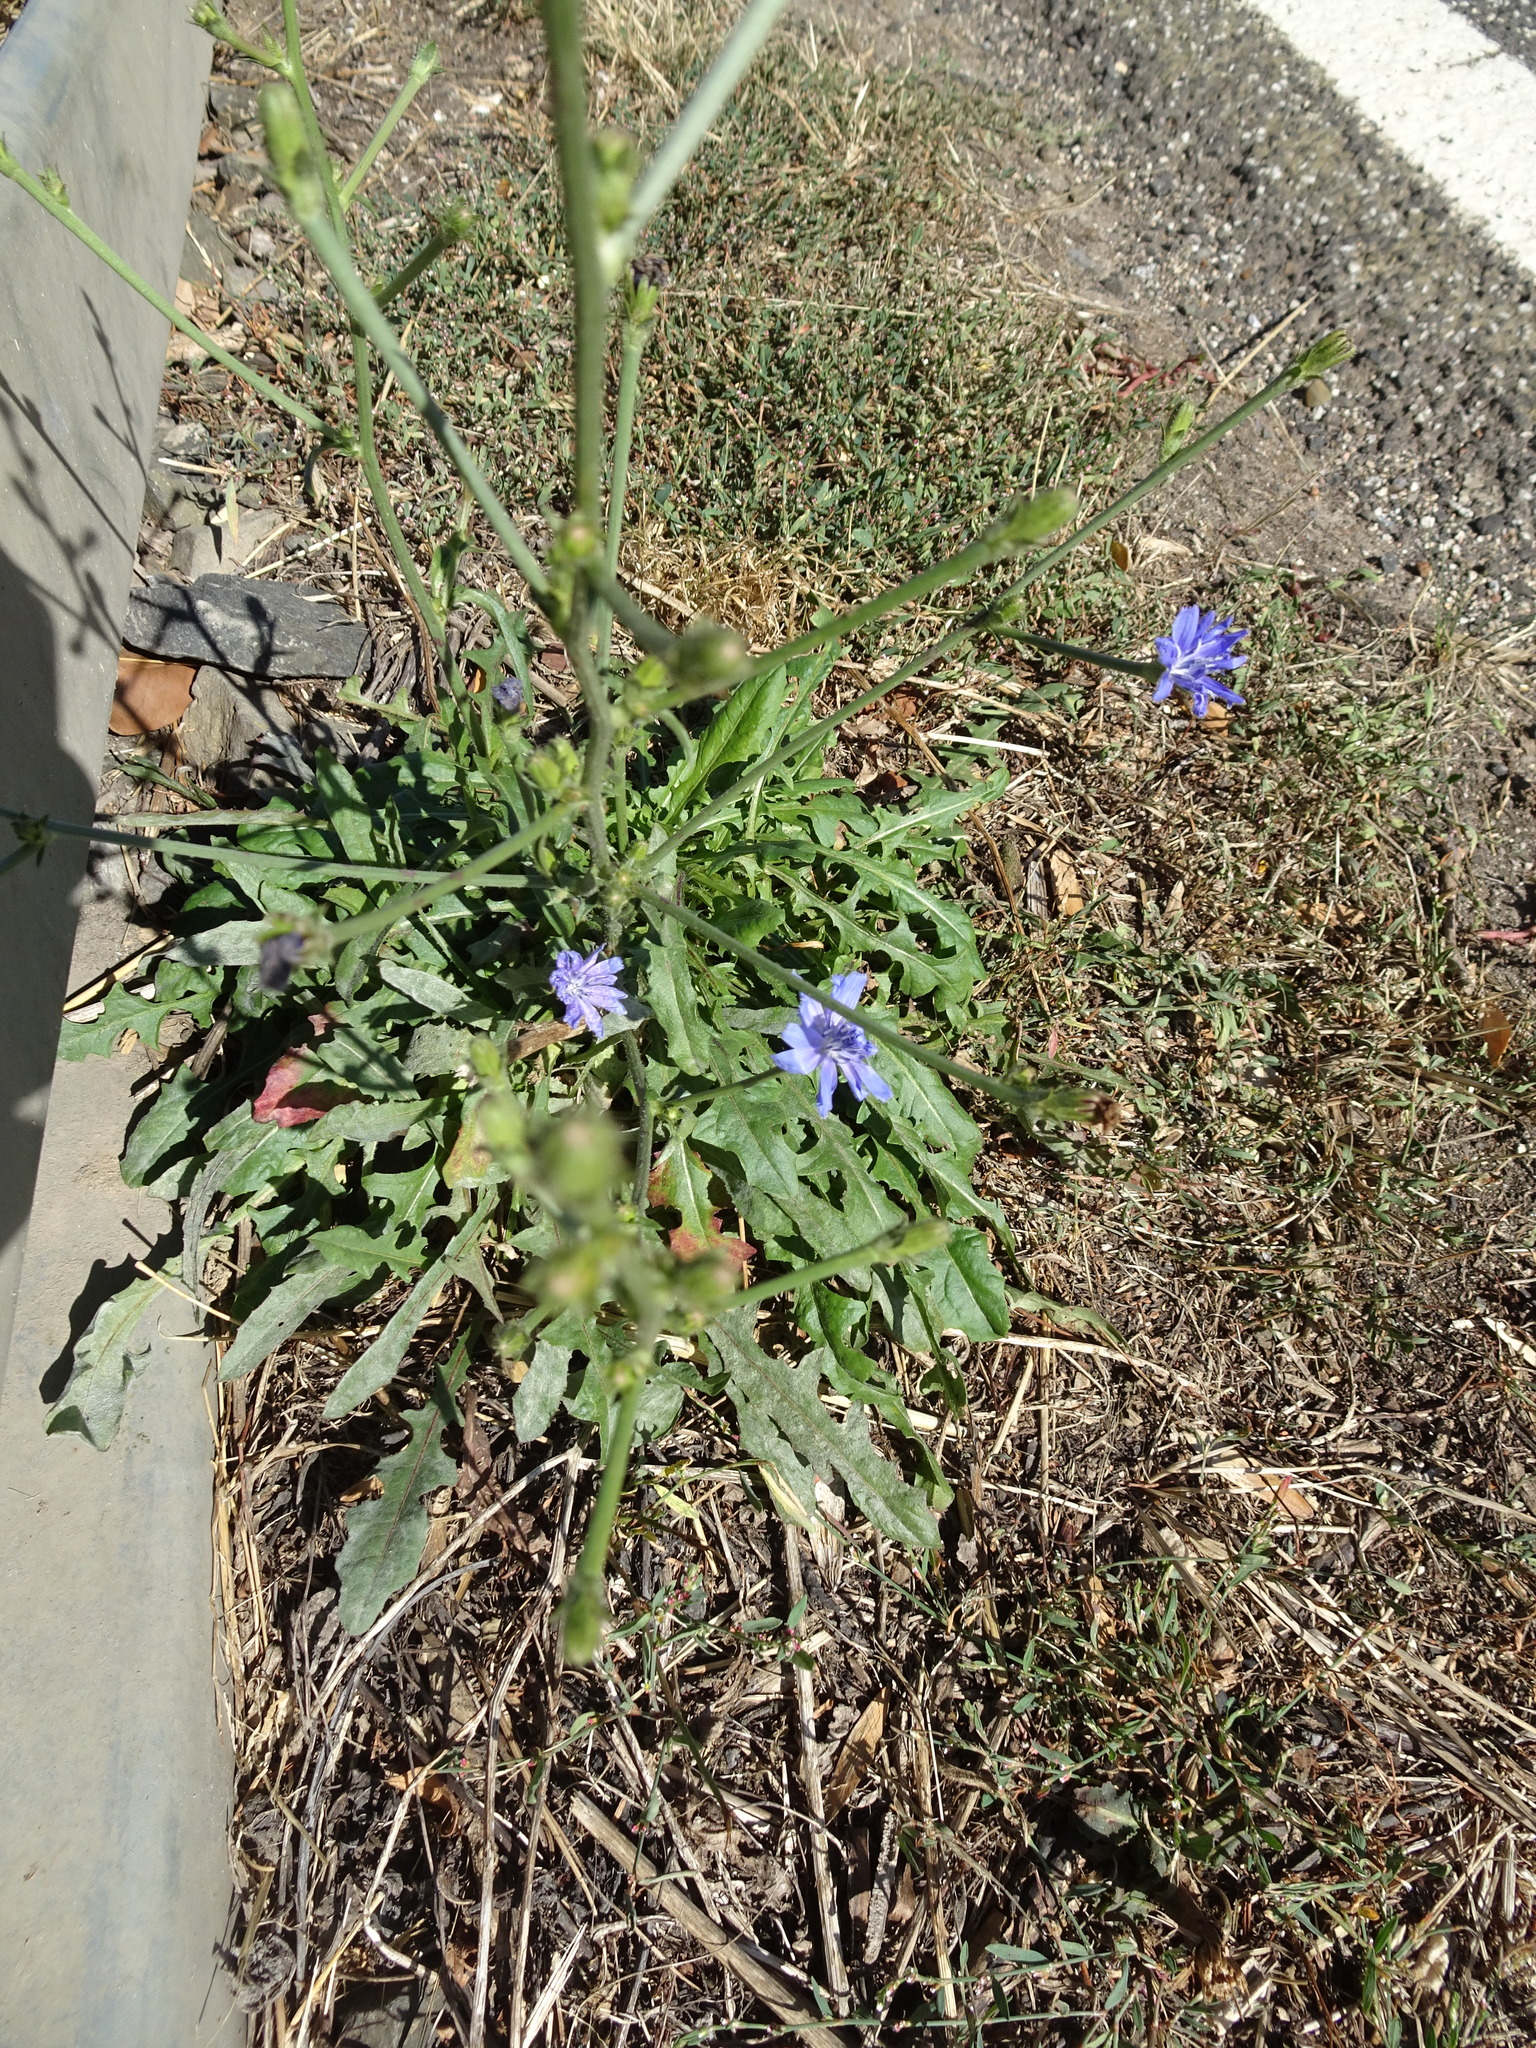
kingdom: Plantae
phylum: Tracheophyta
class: Magnoliopsida
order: Asterales
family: Asteraceae
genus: Cichorium
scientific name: Cichorium intybus
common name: Chicory
